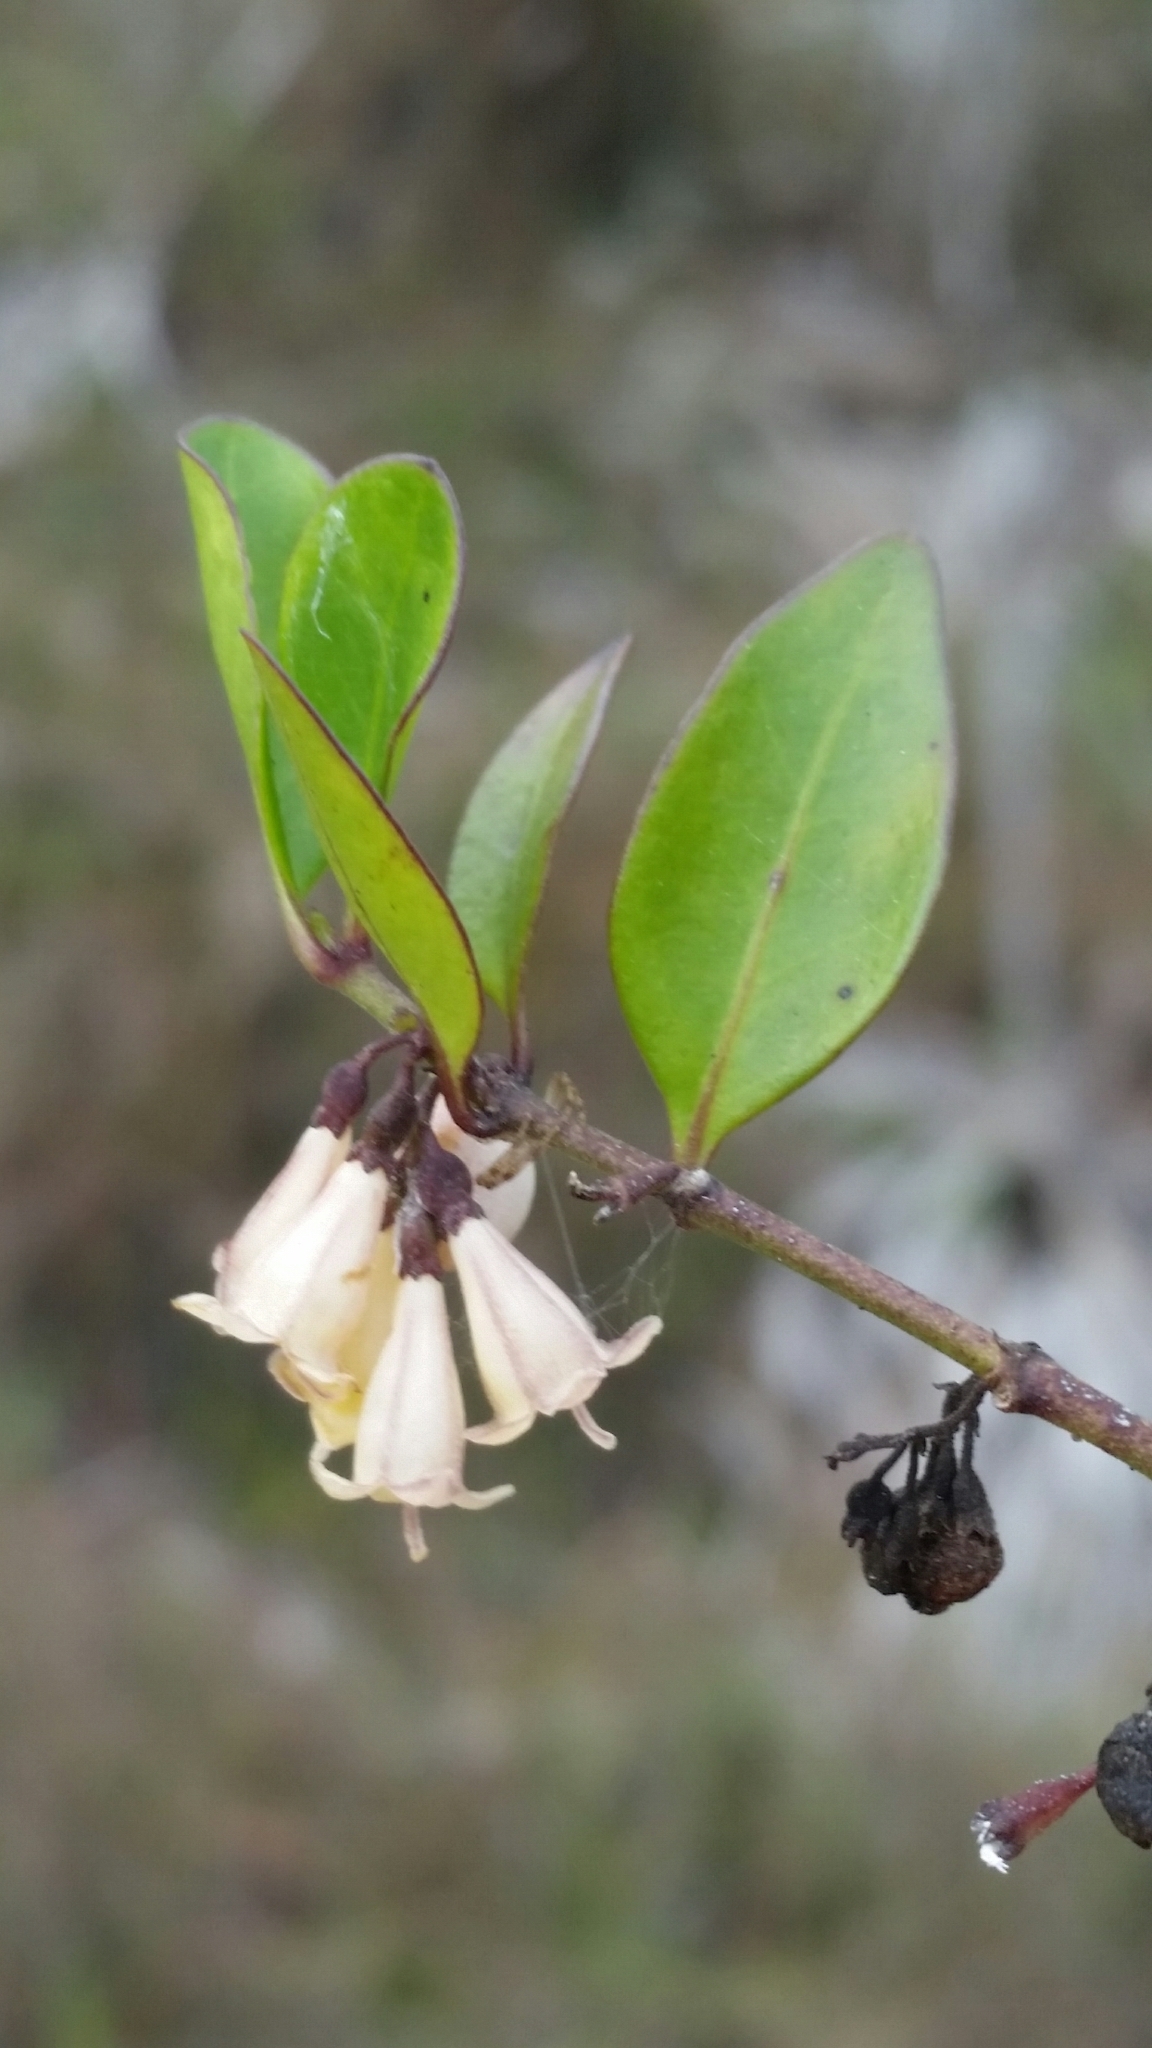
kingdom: Plantae
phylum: Tracheophyta
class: Magnoliopsida
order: Gentianales
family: Rubiaceae
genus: Chiococca
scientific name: Chiococca alba
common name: Snowberry
